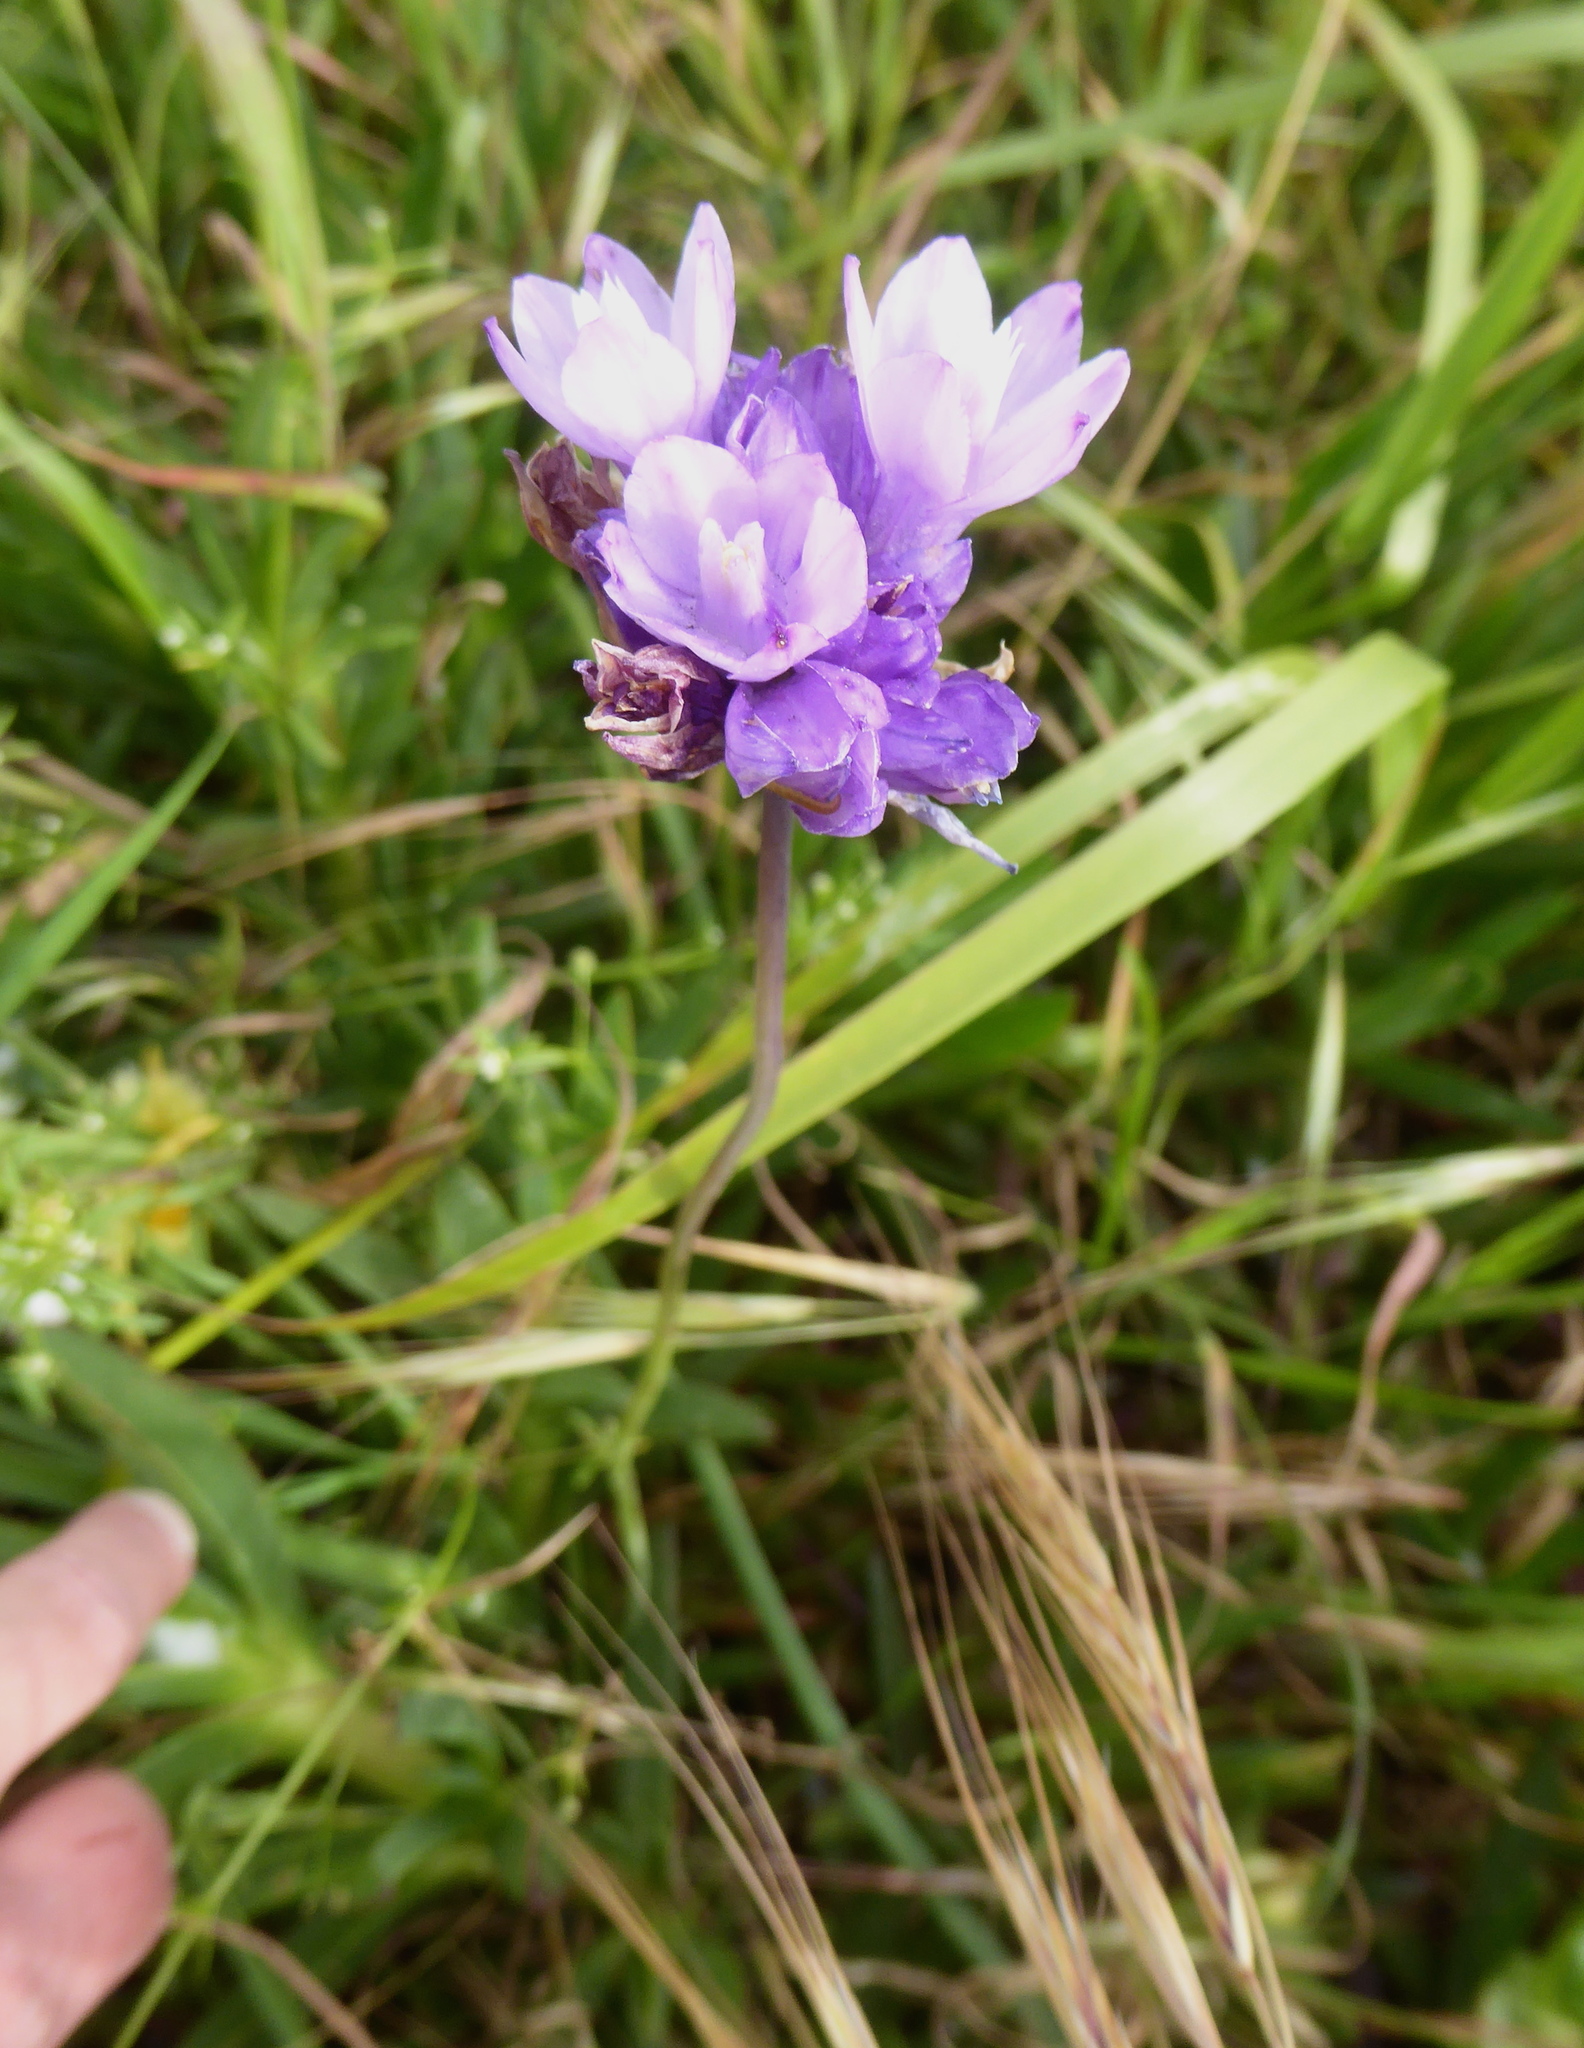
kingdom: Plantae
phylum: Tracheophyta
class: Liliopsida
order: Asparagales
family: Asparagaceae
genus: Dipterostemon
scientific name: Dipterostemon capitatus
